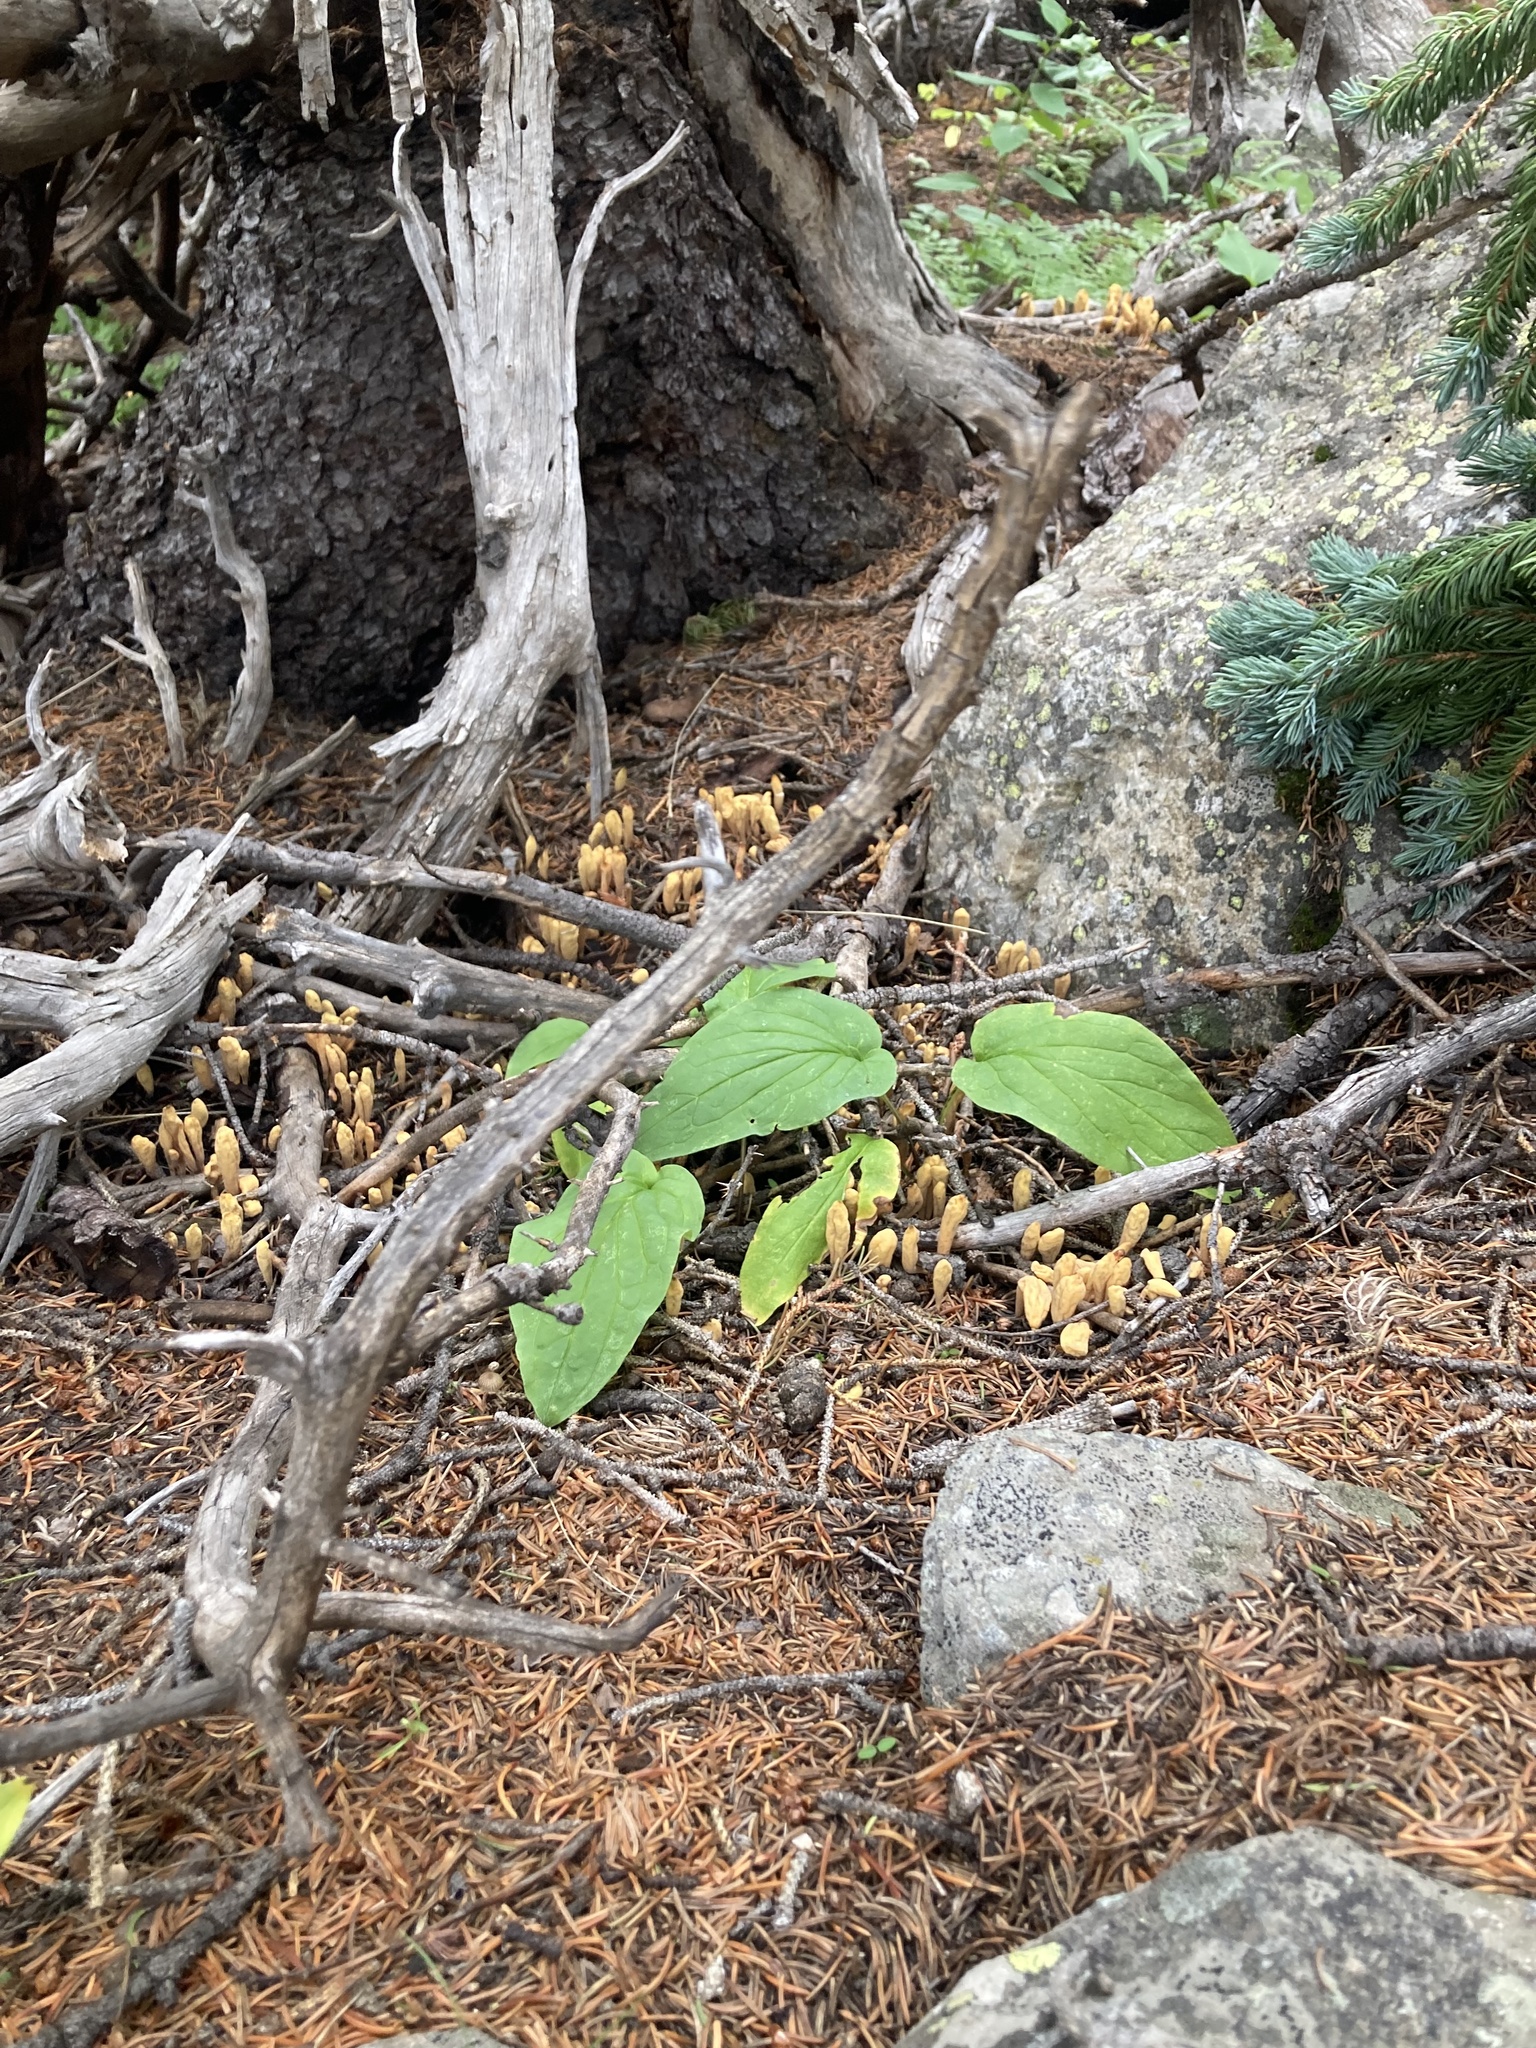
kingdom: Fungi
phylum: Basidiomycota
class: Agaricomycetes
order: Gomphales
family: Clavariadelphaceae
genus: Clavariadelphus
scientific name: Clavariadelphus ligula
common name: Ochre club
